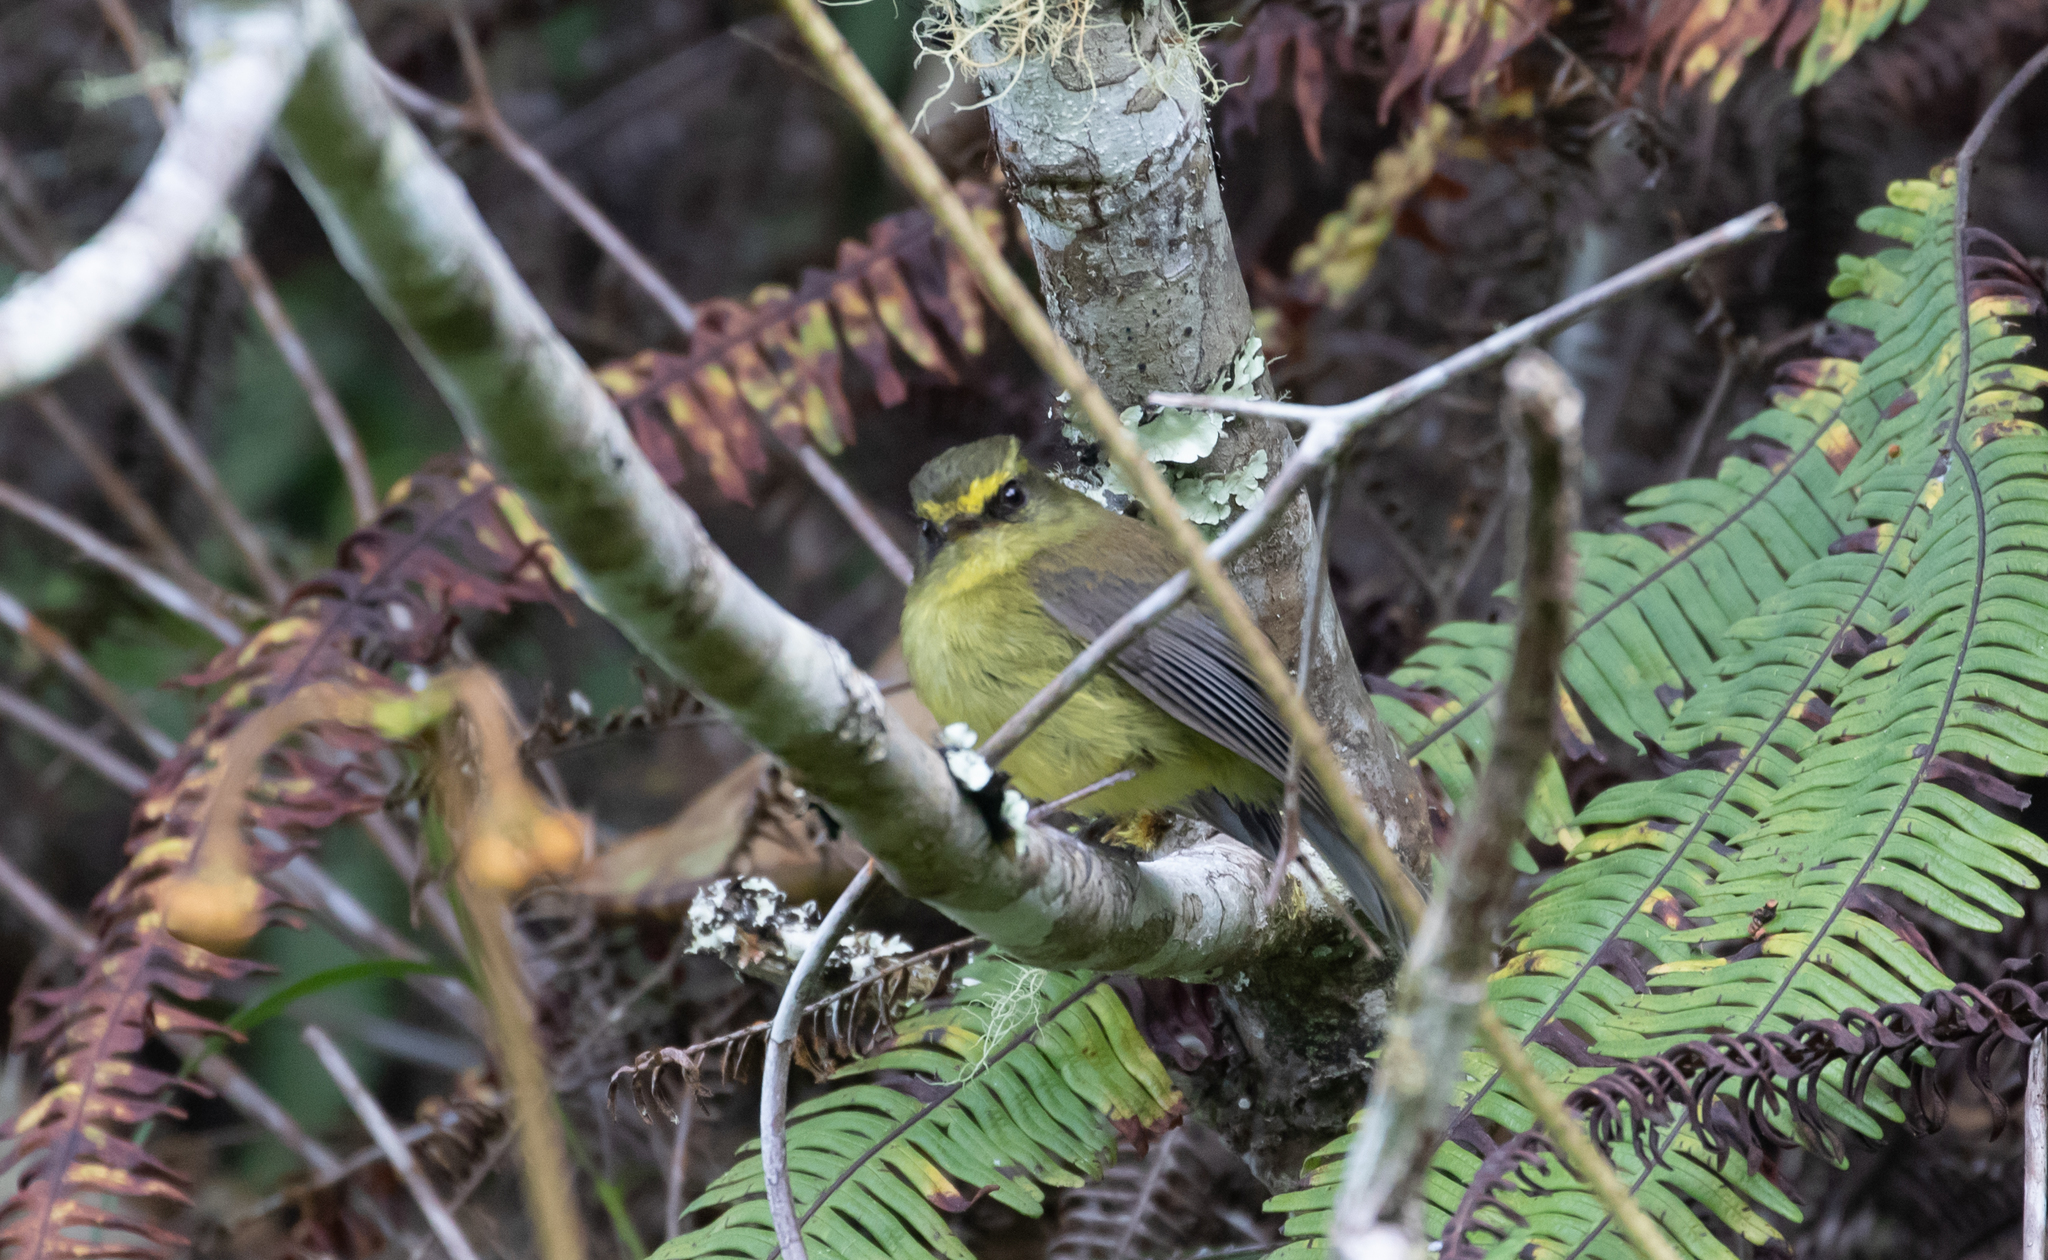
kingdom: Animalia
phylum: Chordata
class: Aves
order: Passeriformes
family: Tyrannidae
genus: Ochthoeca
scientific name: Ochthoeca diadema
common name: Yellow-bellied chat-tyrant
